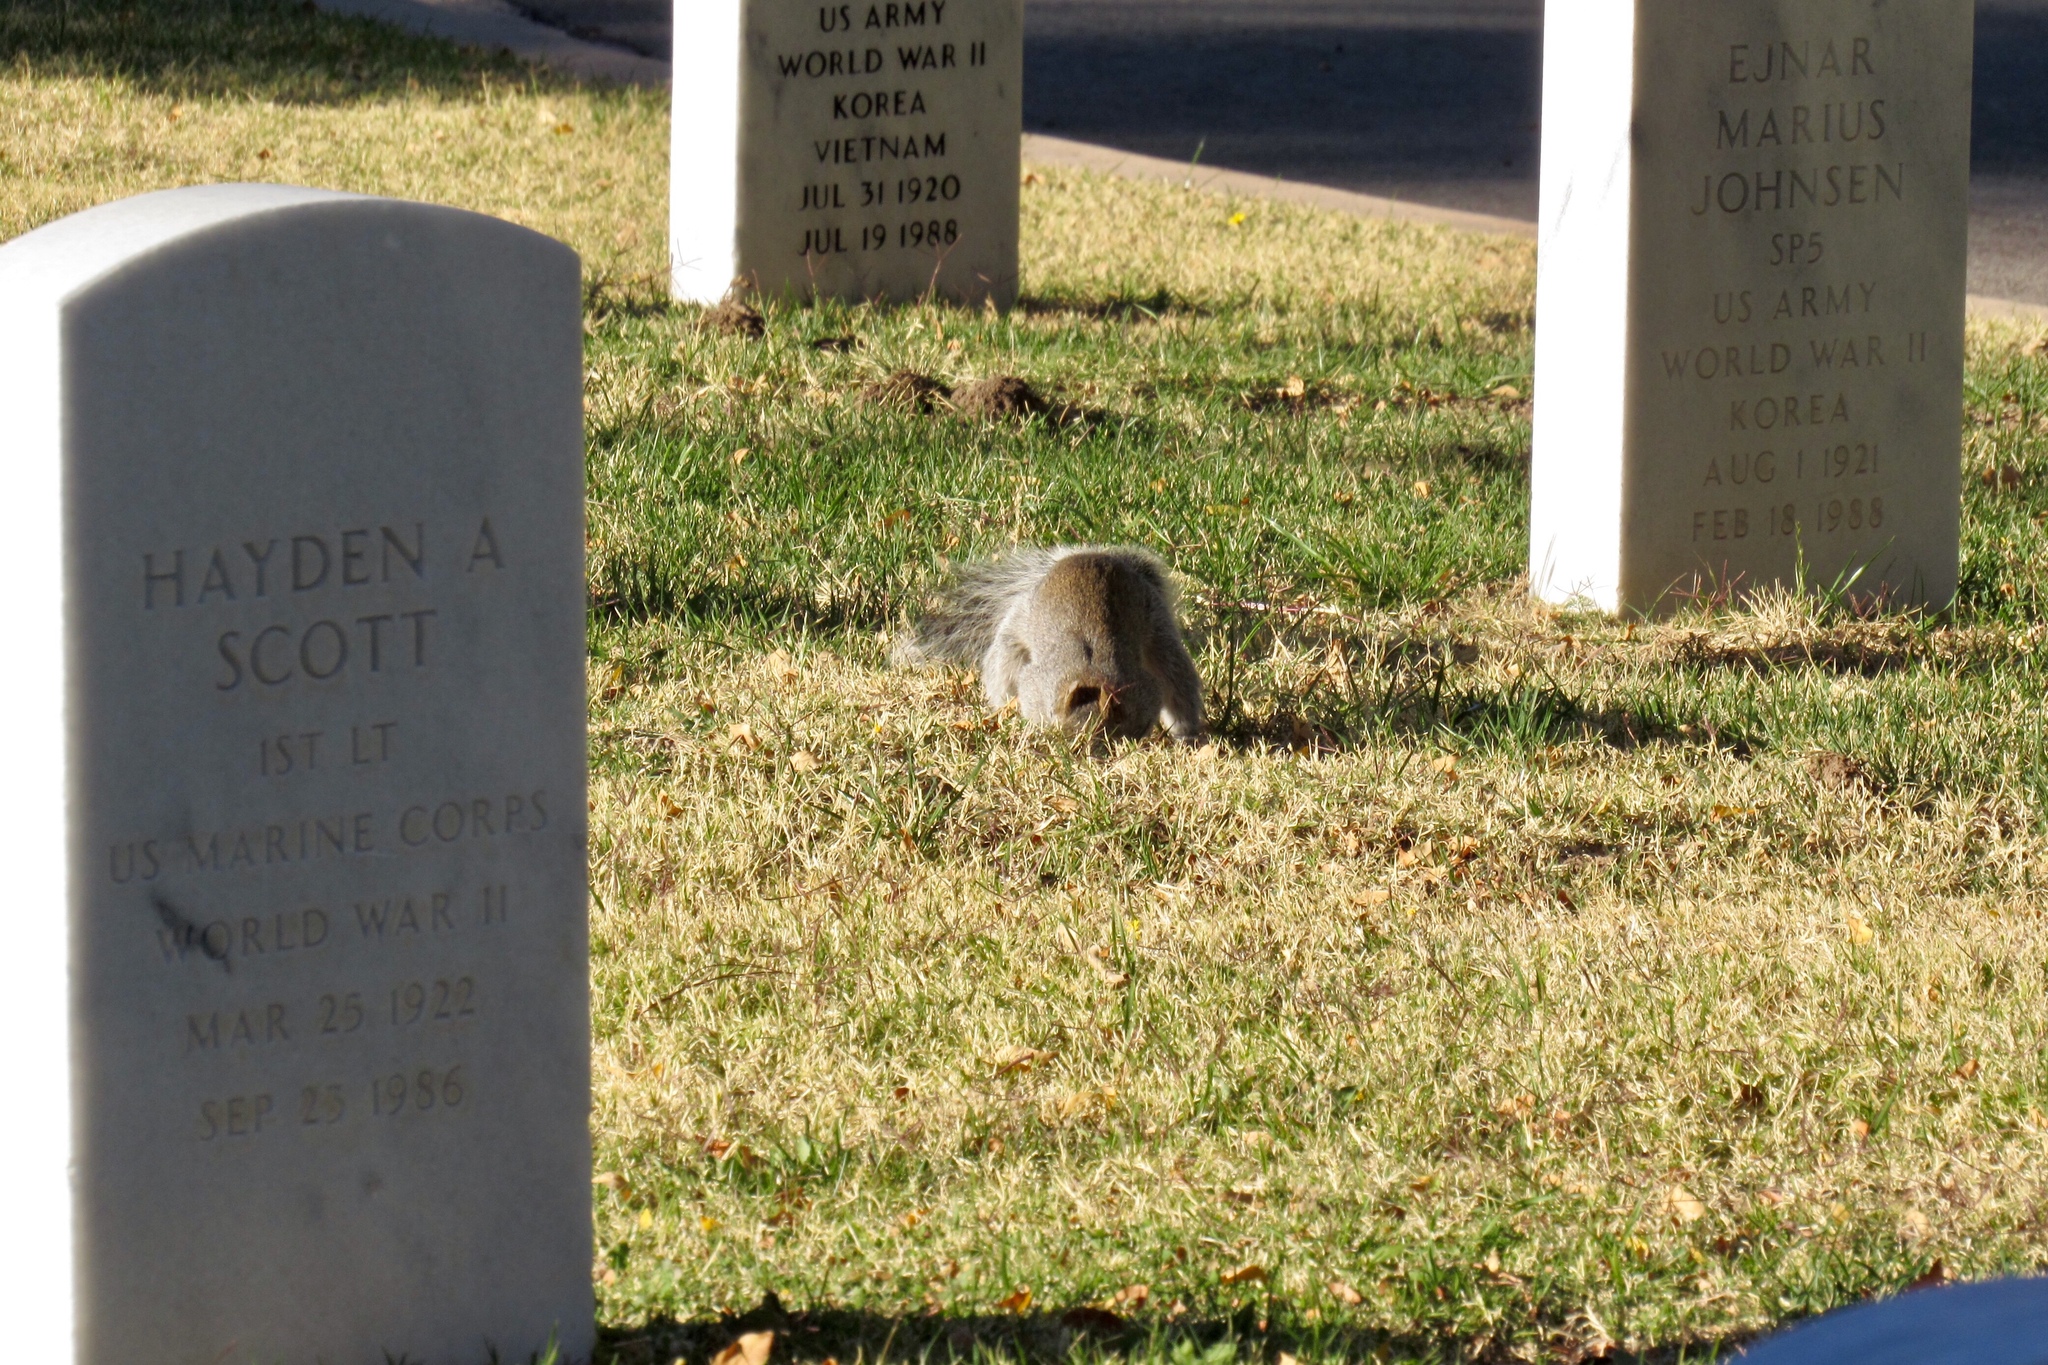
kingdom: Animalia
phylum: Chordata
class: Mammalia
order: Rodentia
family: Sciuridae
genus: Sciurus
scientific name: Sciurus arizonensis
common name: Arizona gray squirrel
